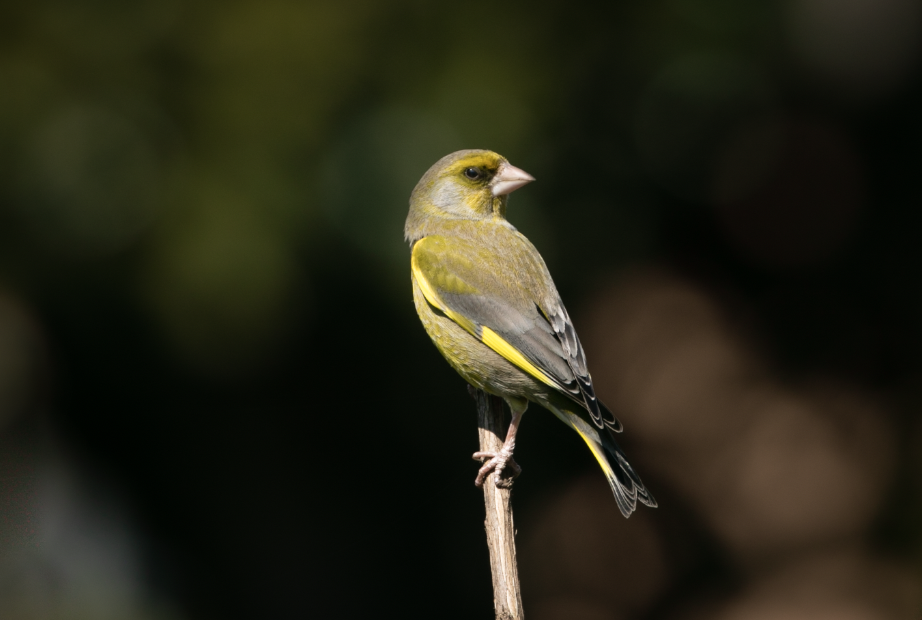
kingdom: Plantae
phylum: Tracheophyta
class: Liliopsida
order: Poales
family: Poaceae
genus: Chloris
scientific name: Chloris chloris
